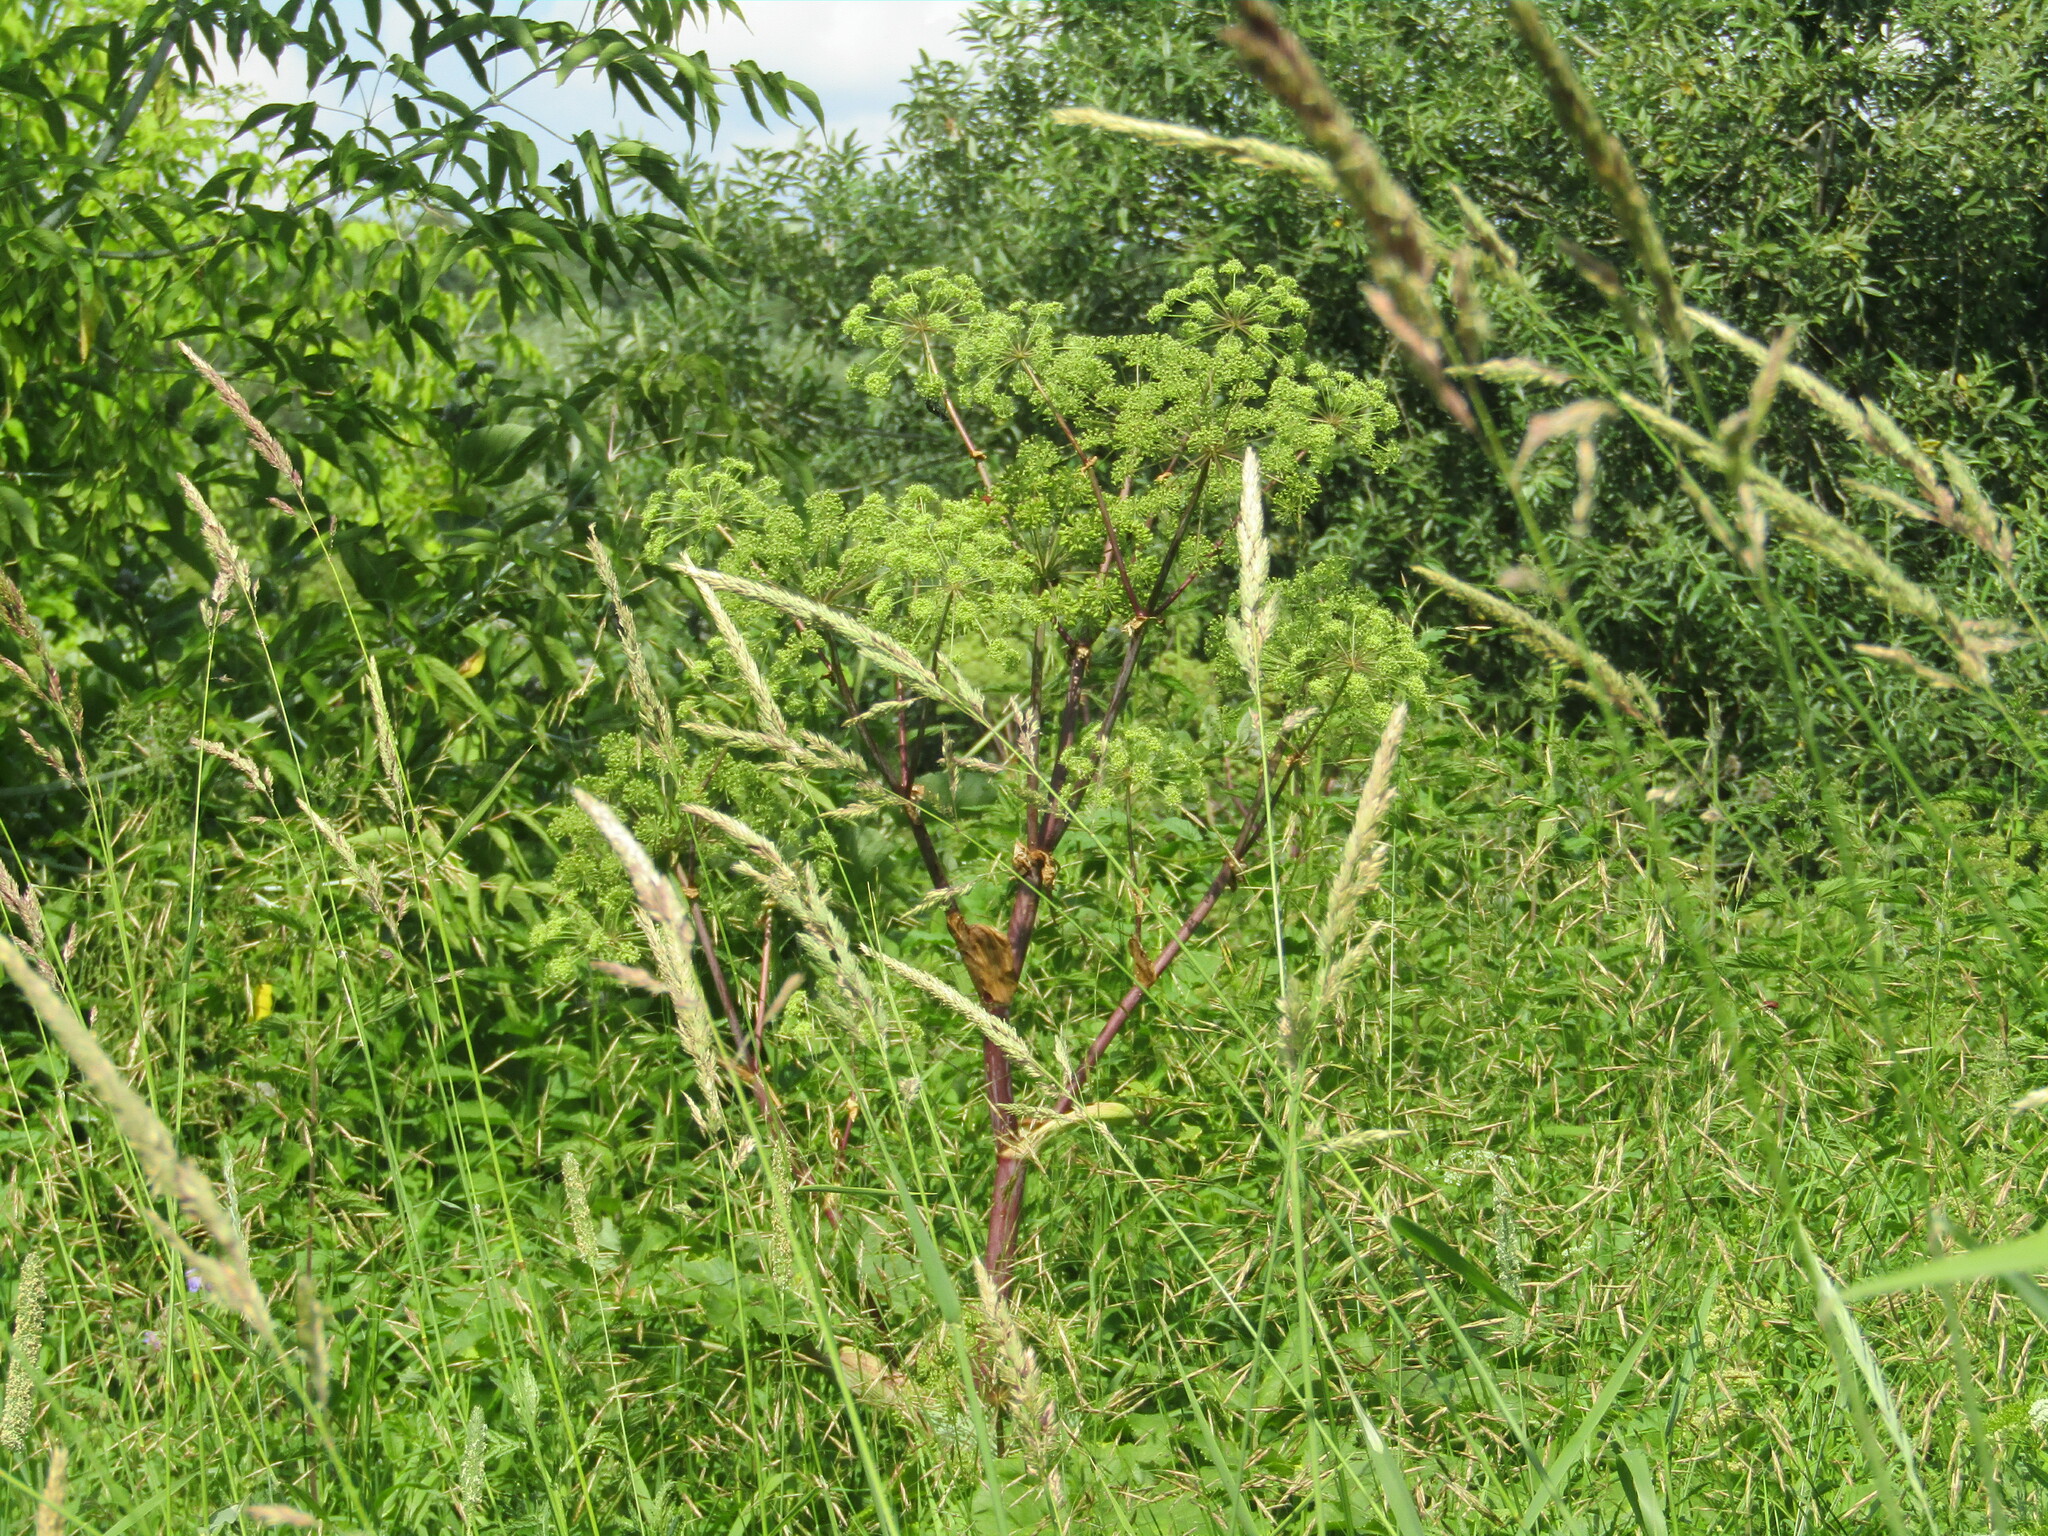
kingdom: Plantae
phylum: Tracheophyta
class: Magnoliopsida
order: Apiales
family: Apiaceae
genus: Angelica
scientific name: Angelica archangelica
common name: Garden angelica
